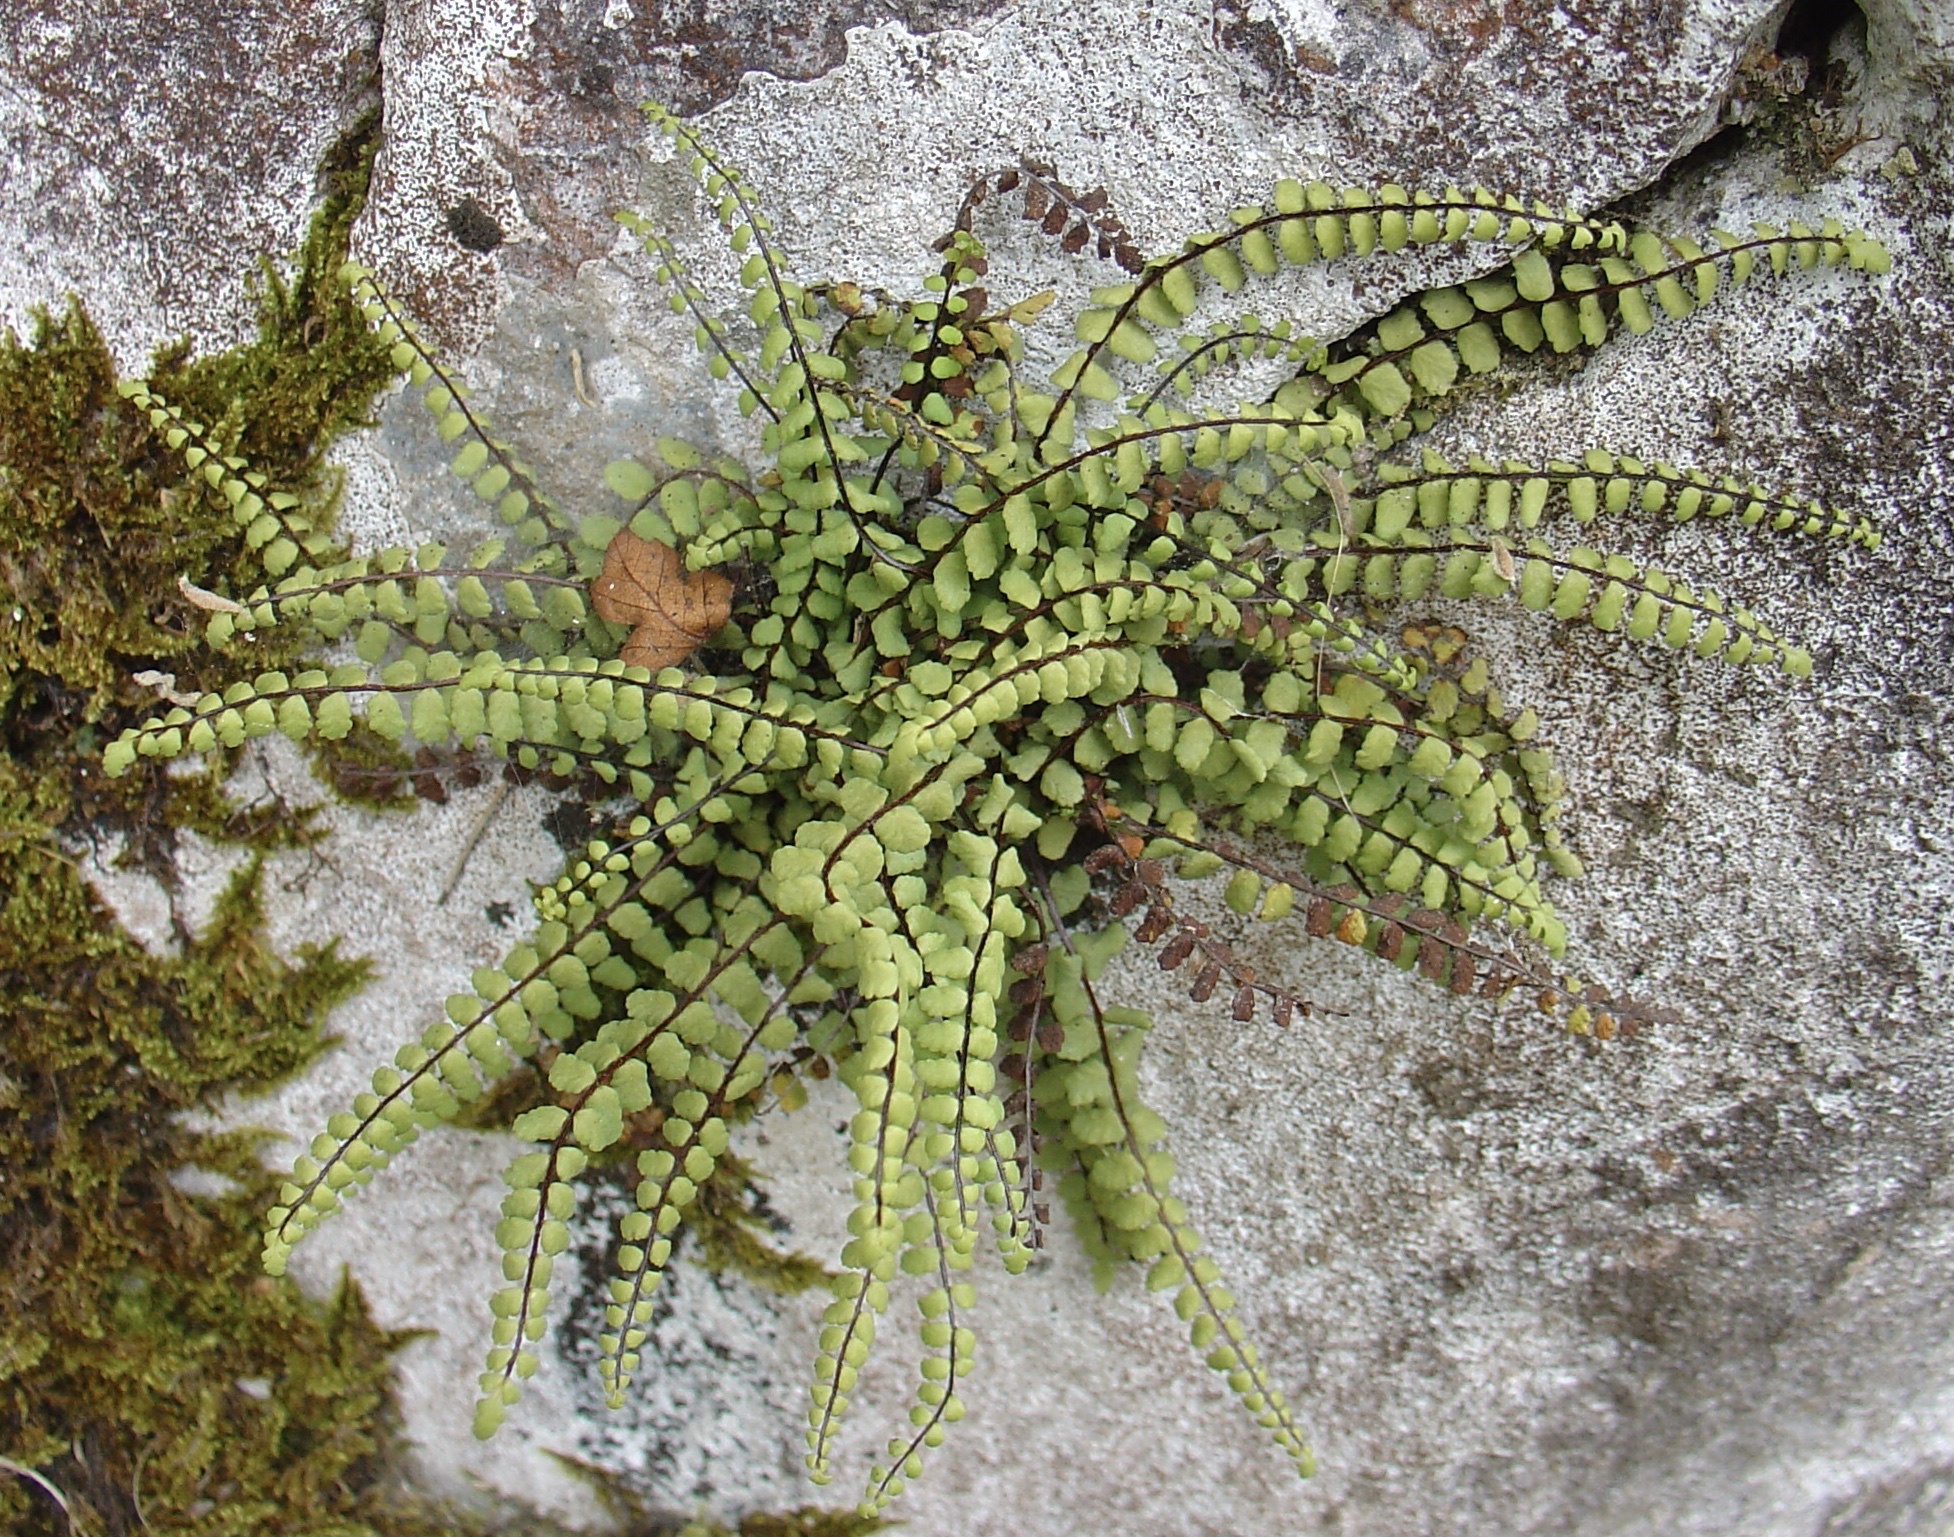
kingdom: Plantae
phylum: Tracheophyta
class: Polypodiopsida
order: Polypodiales
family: Aspleniaceae
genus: Asplenium
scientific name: Asplenium trichomanes
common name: Maidenhair spleenwort
